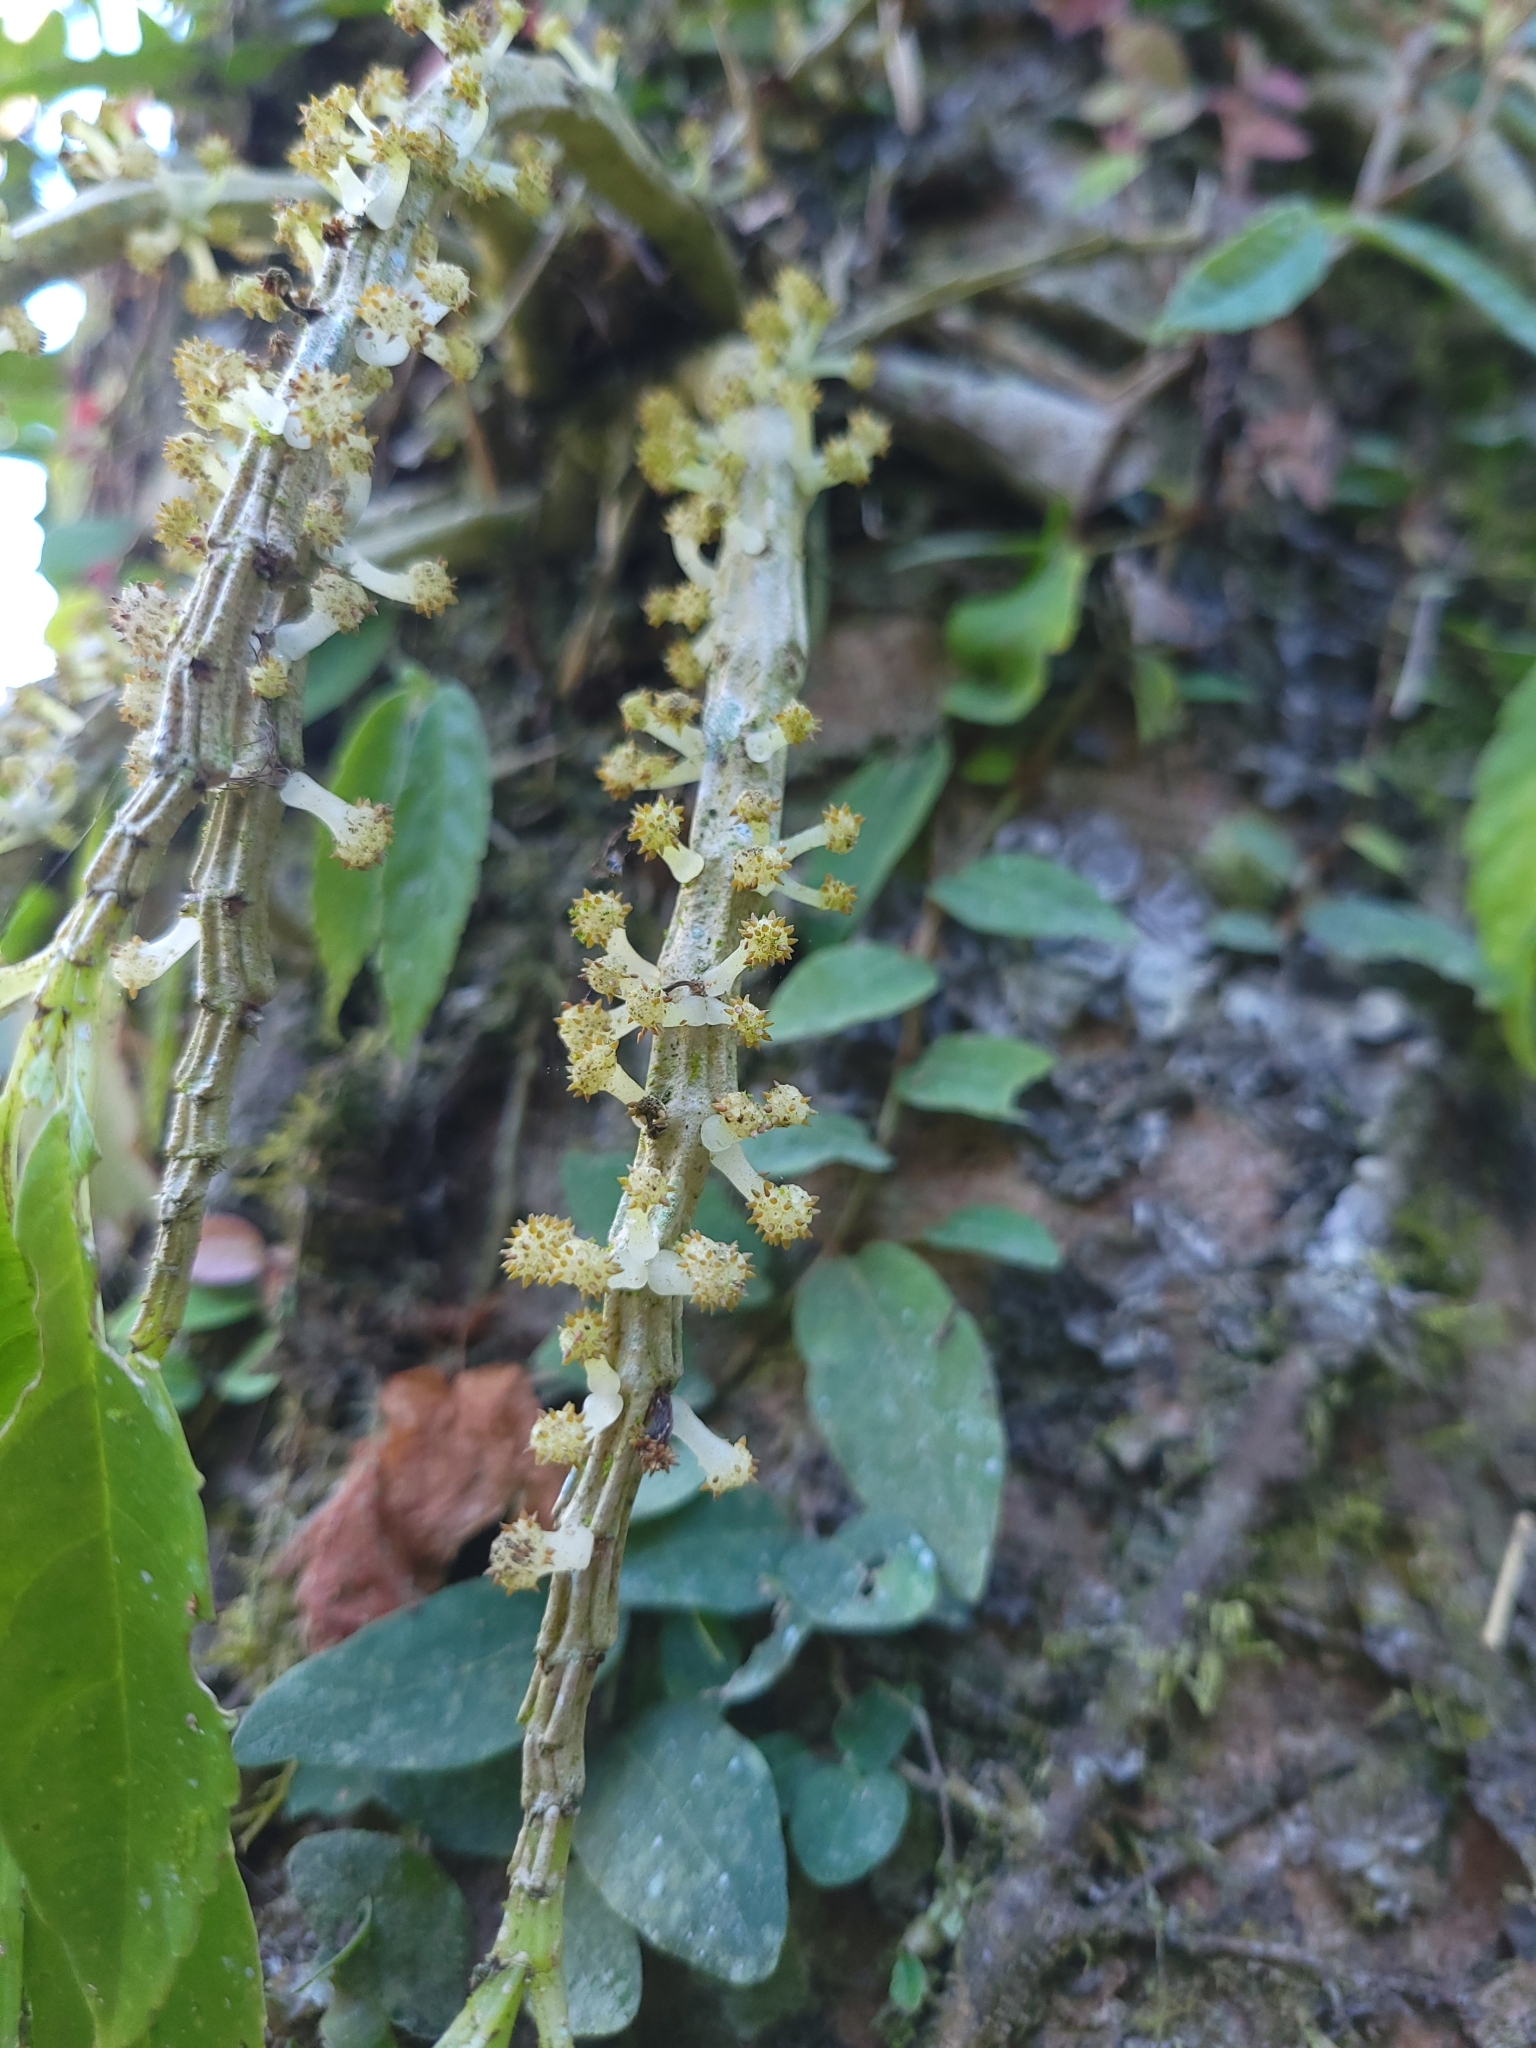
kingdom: Plantae
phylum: Tracheophyta
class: Magnoliopsida
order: Rosales
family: Urticaceae
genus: Procris
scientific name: Procris
